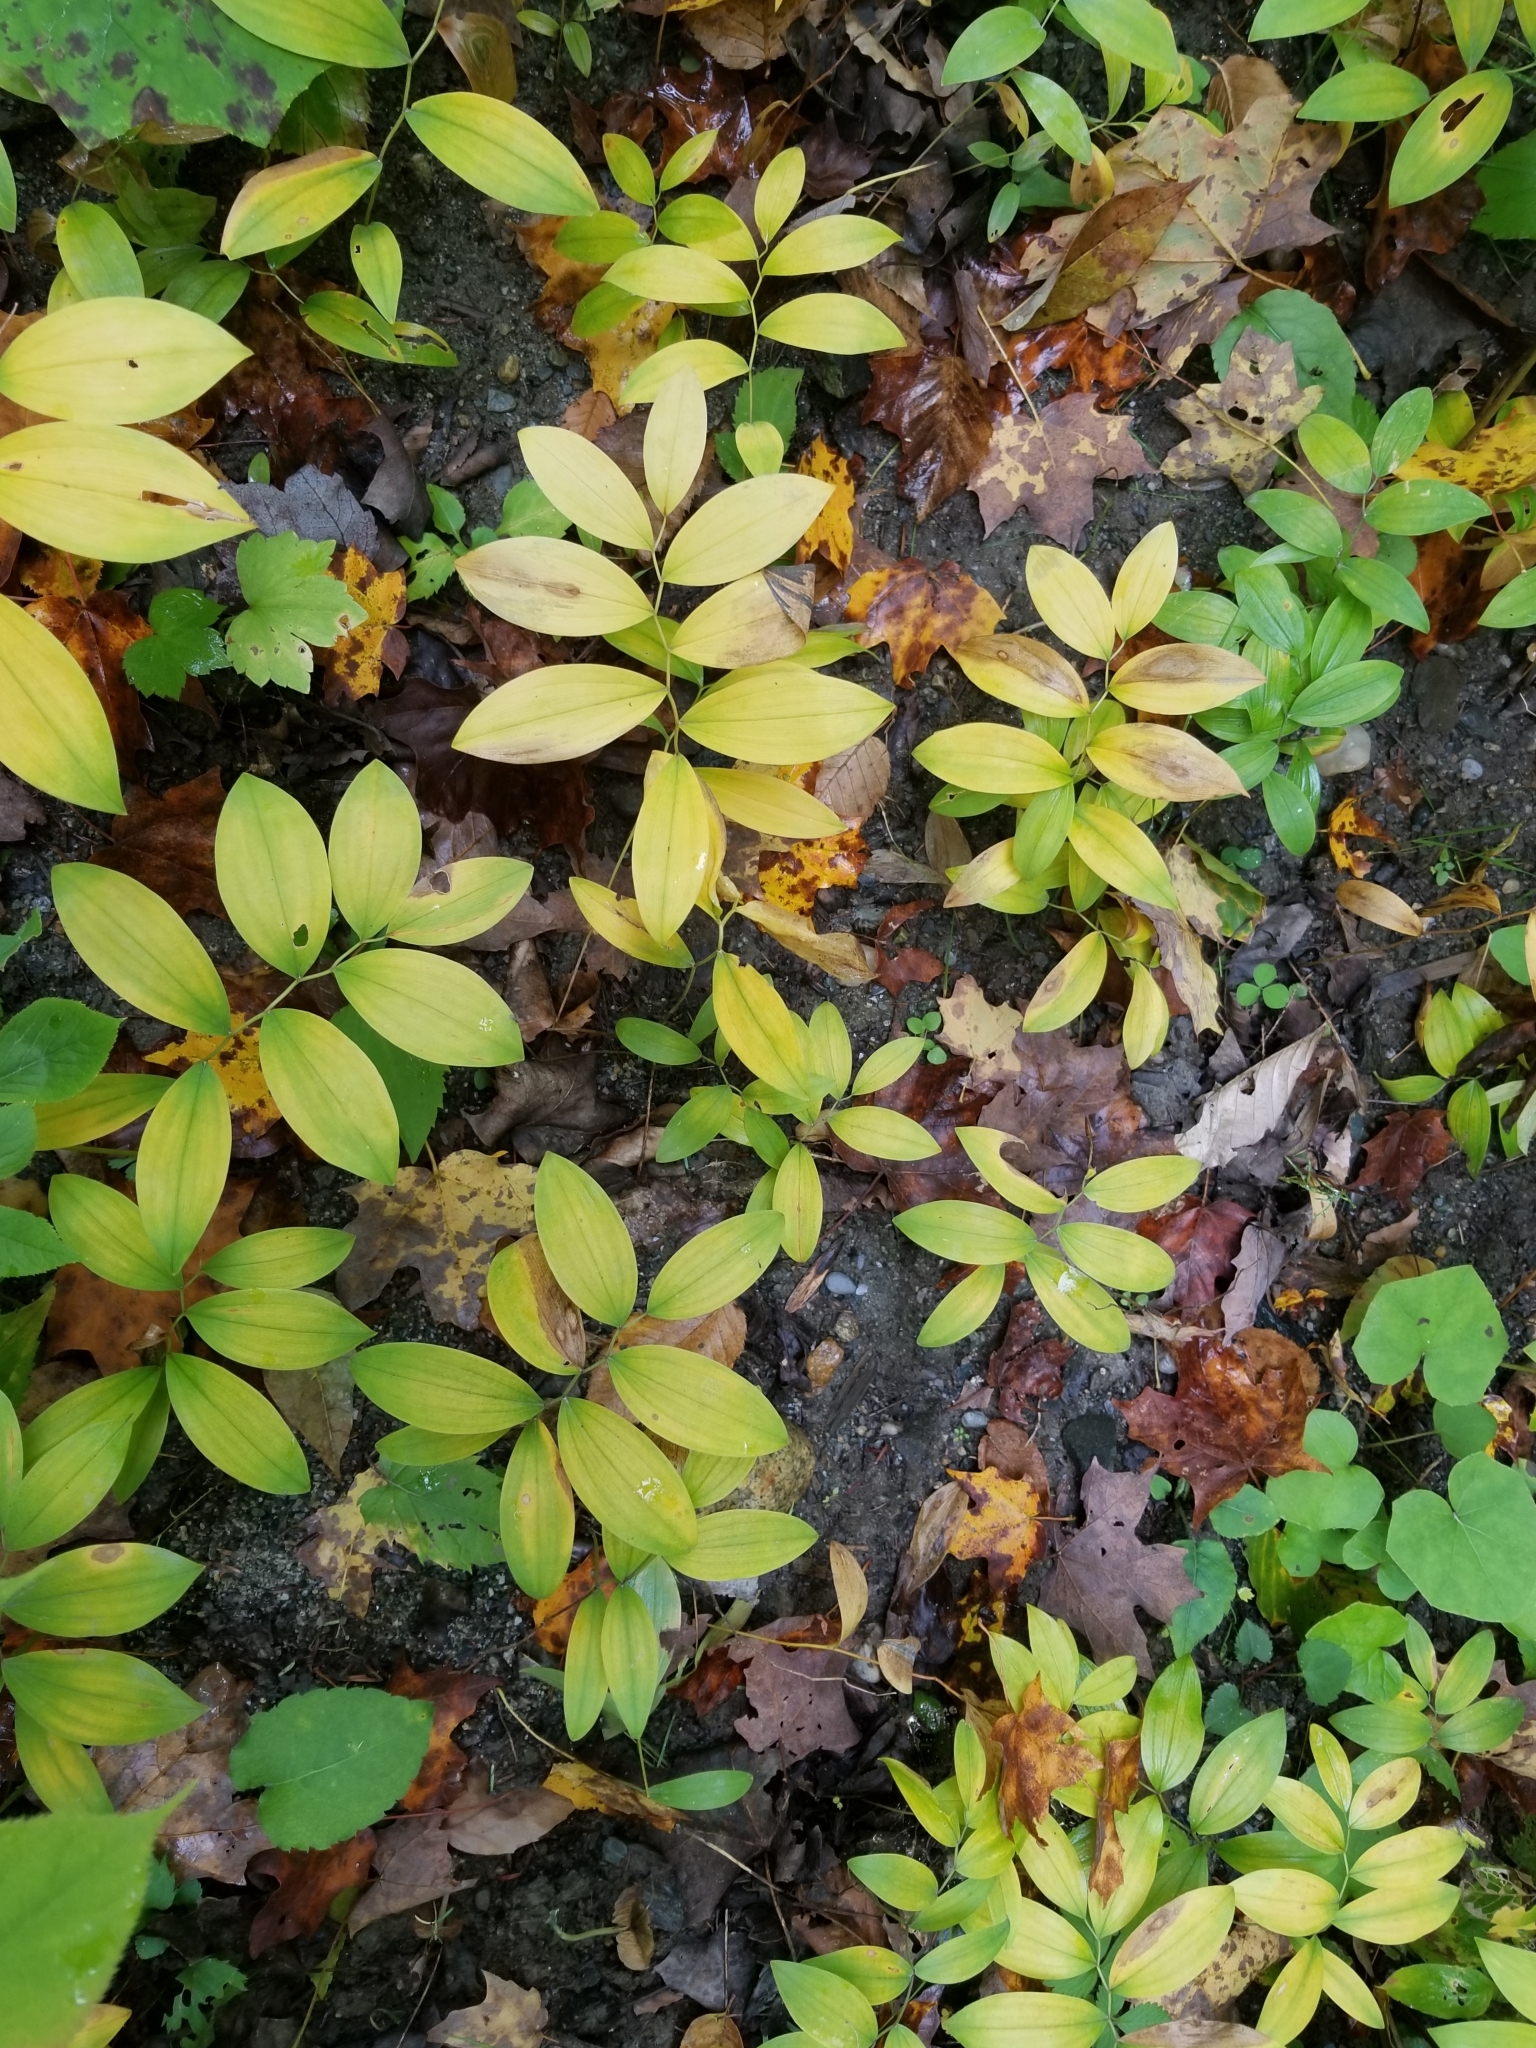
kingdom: Plantae
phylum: Tracheophyta
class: Liliopsida
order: Liliales
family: Colchicaceae
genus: Uvularia
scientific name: Uvularia sessilifolia
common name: Straw-lily
